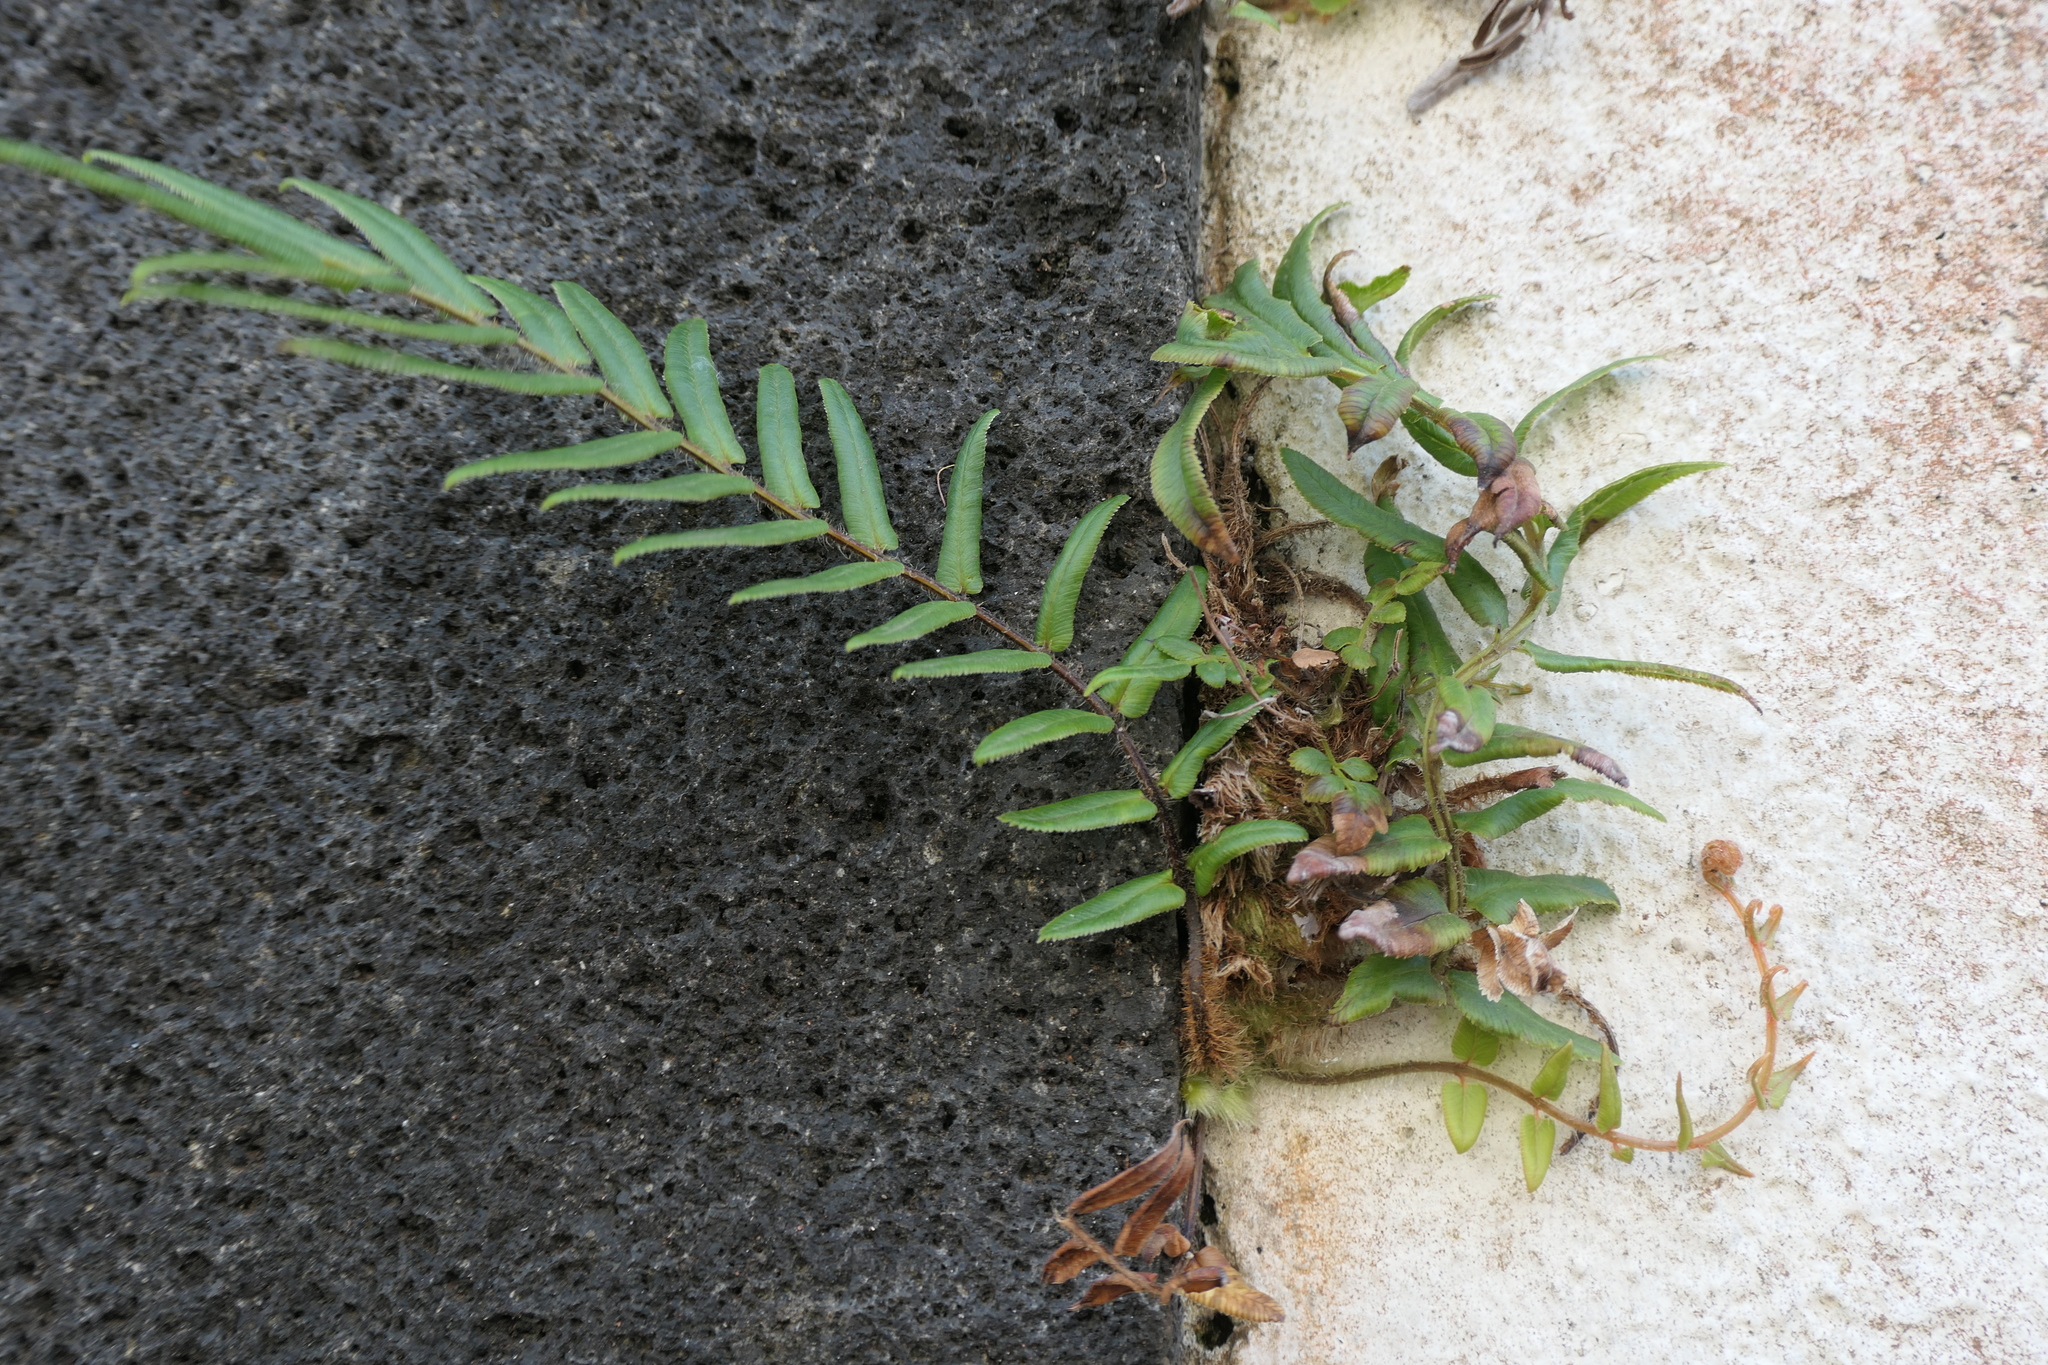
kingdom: Plantae
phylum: Tracheophyta
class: Polypodiopsida
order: Polypodiales
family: Pteridaceae
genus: Pteris
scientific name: Pteris vittata
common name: Ladder brake
